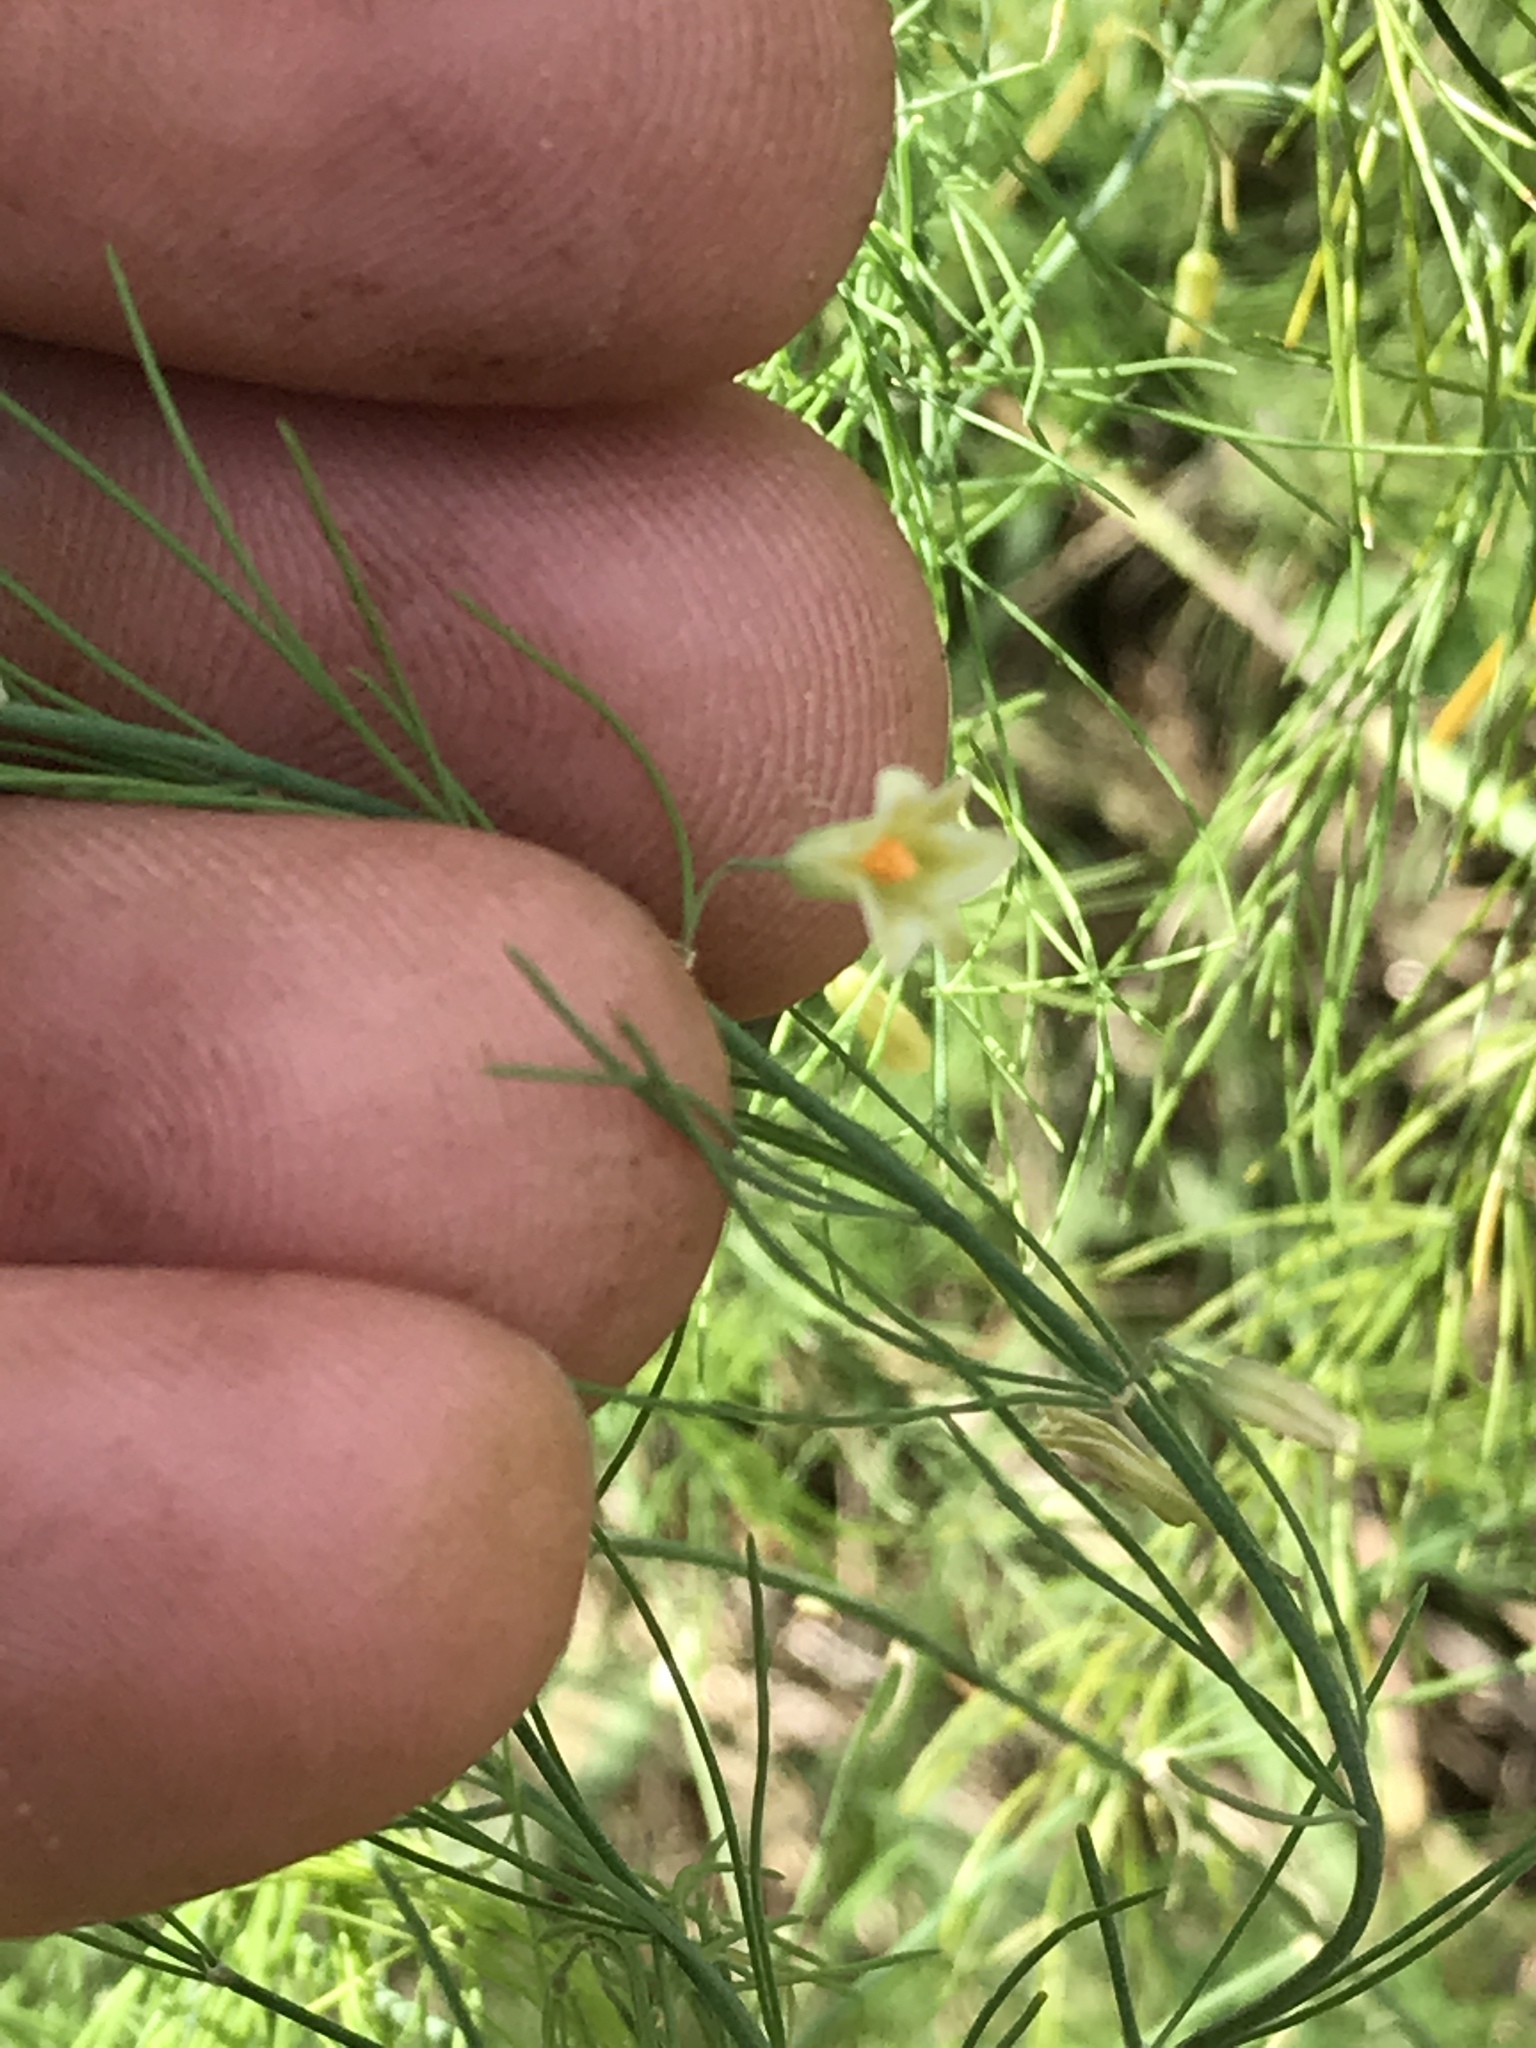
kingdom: Plantae
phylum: Tracheophyta
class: Liliopsida
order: Asparagales
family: Asparagaceae
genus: Asparagus
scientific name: Asparagus officinalis
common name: Garden asparagus
